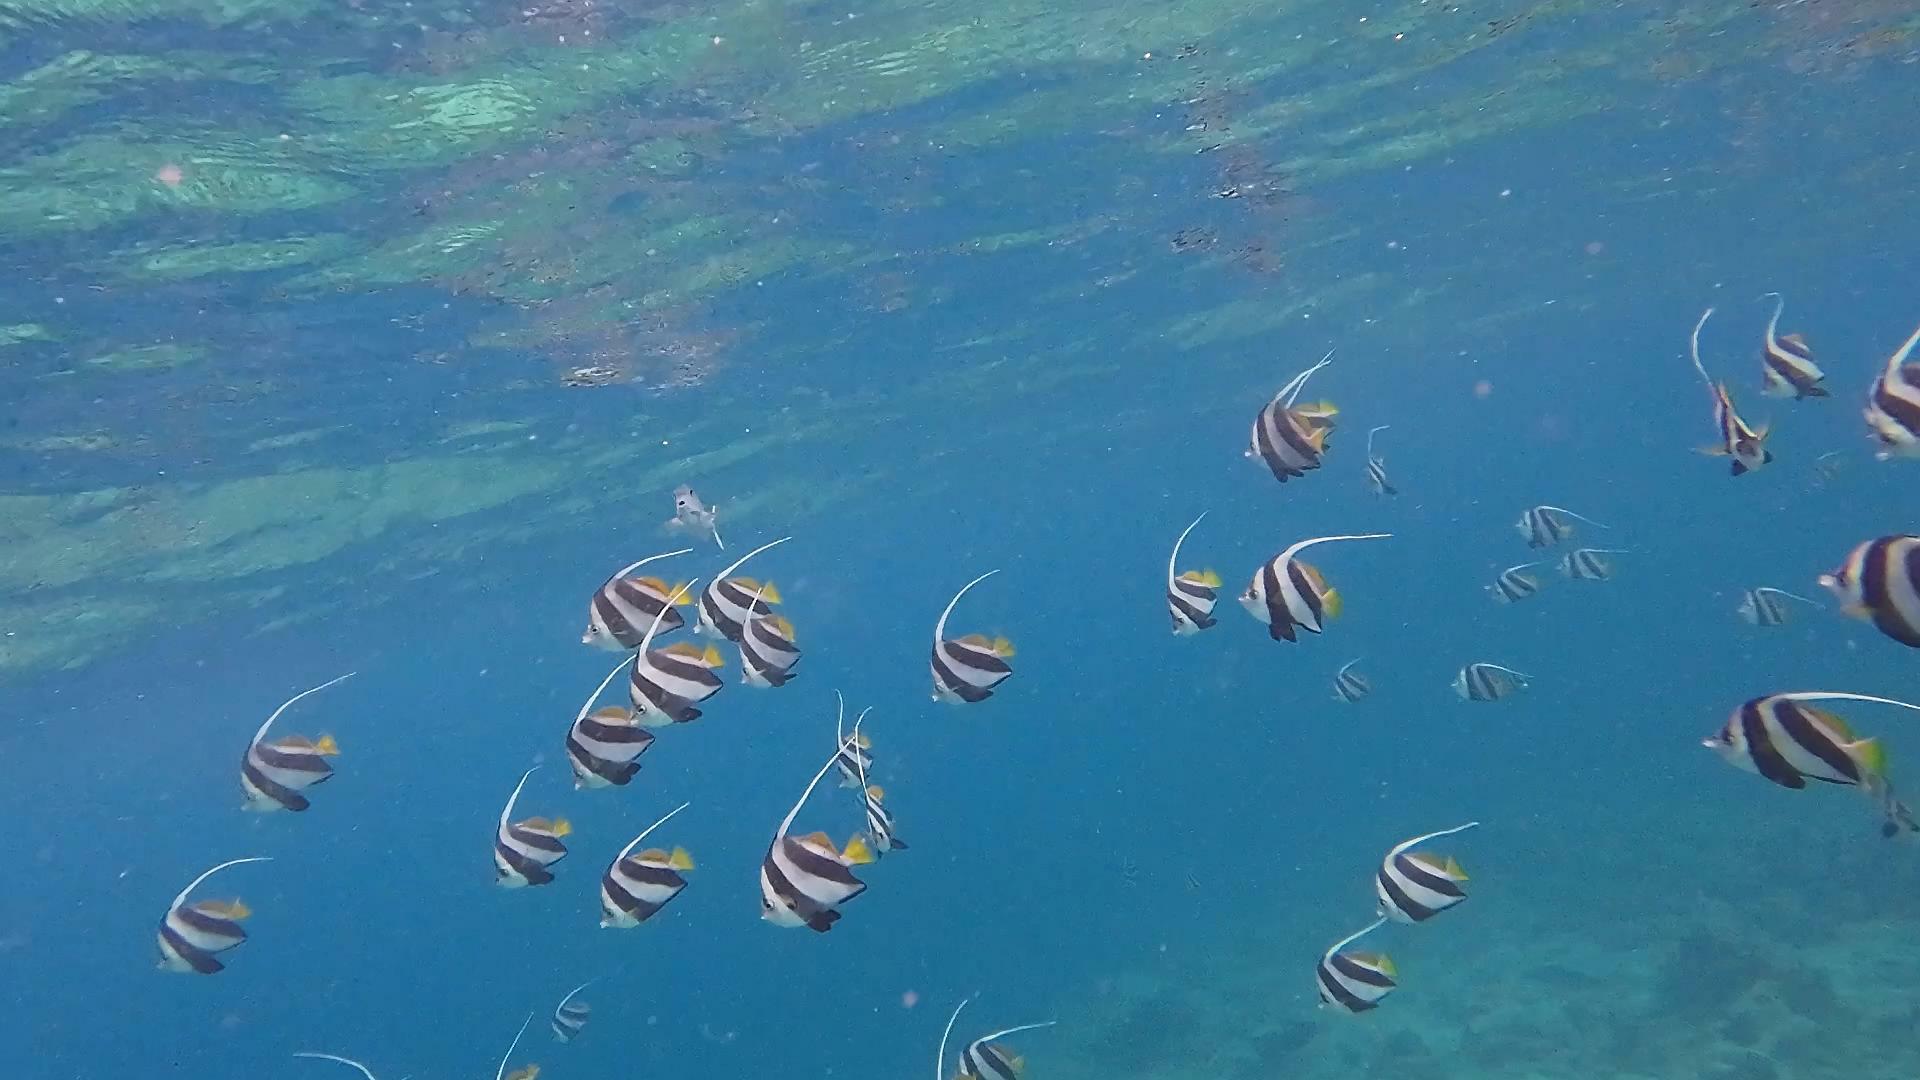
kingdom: Animalia
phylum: Chordata
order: Perciformes
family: Chaetodontidae
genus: Heniochus
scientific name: Heniochus diphreutes
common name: Pennantfish
